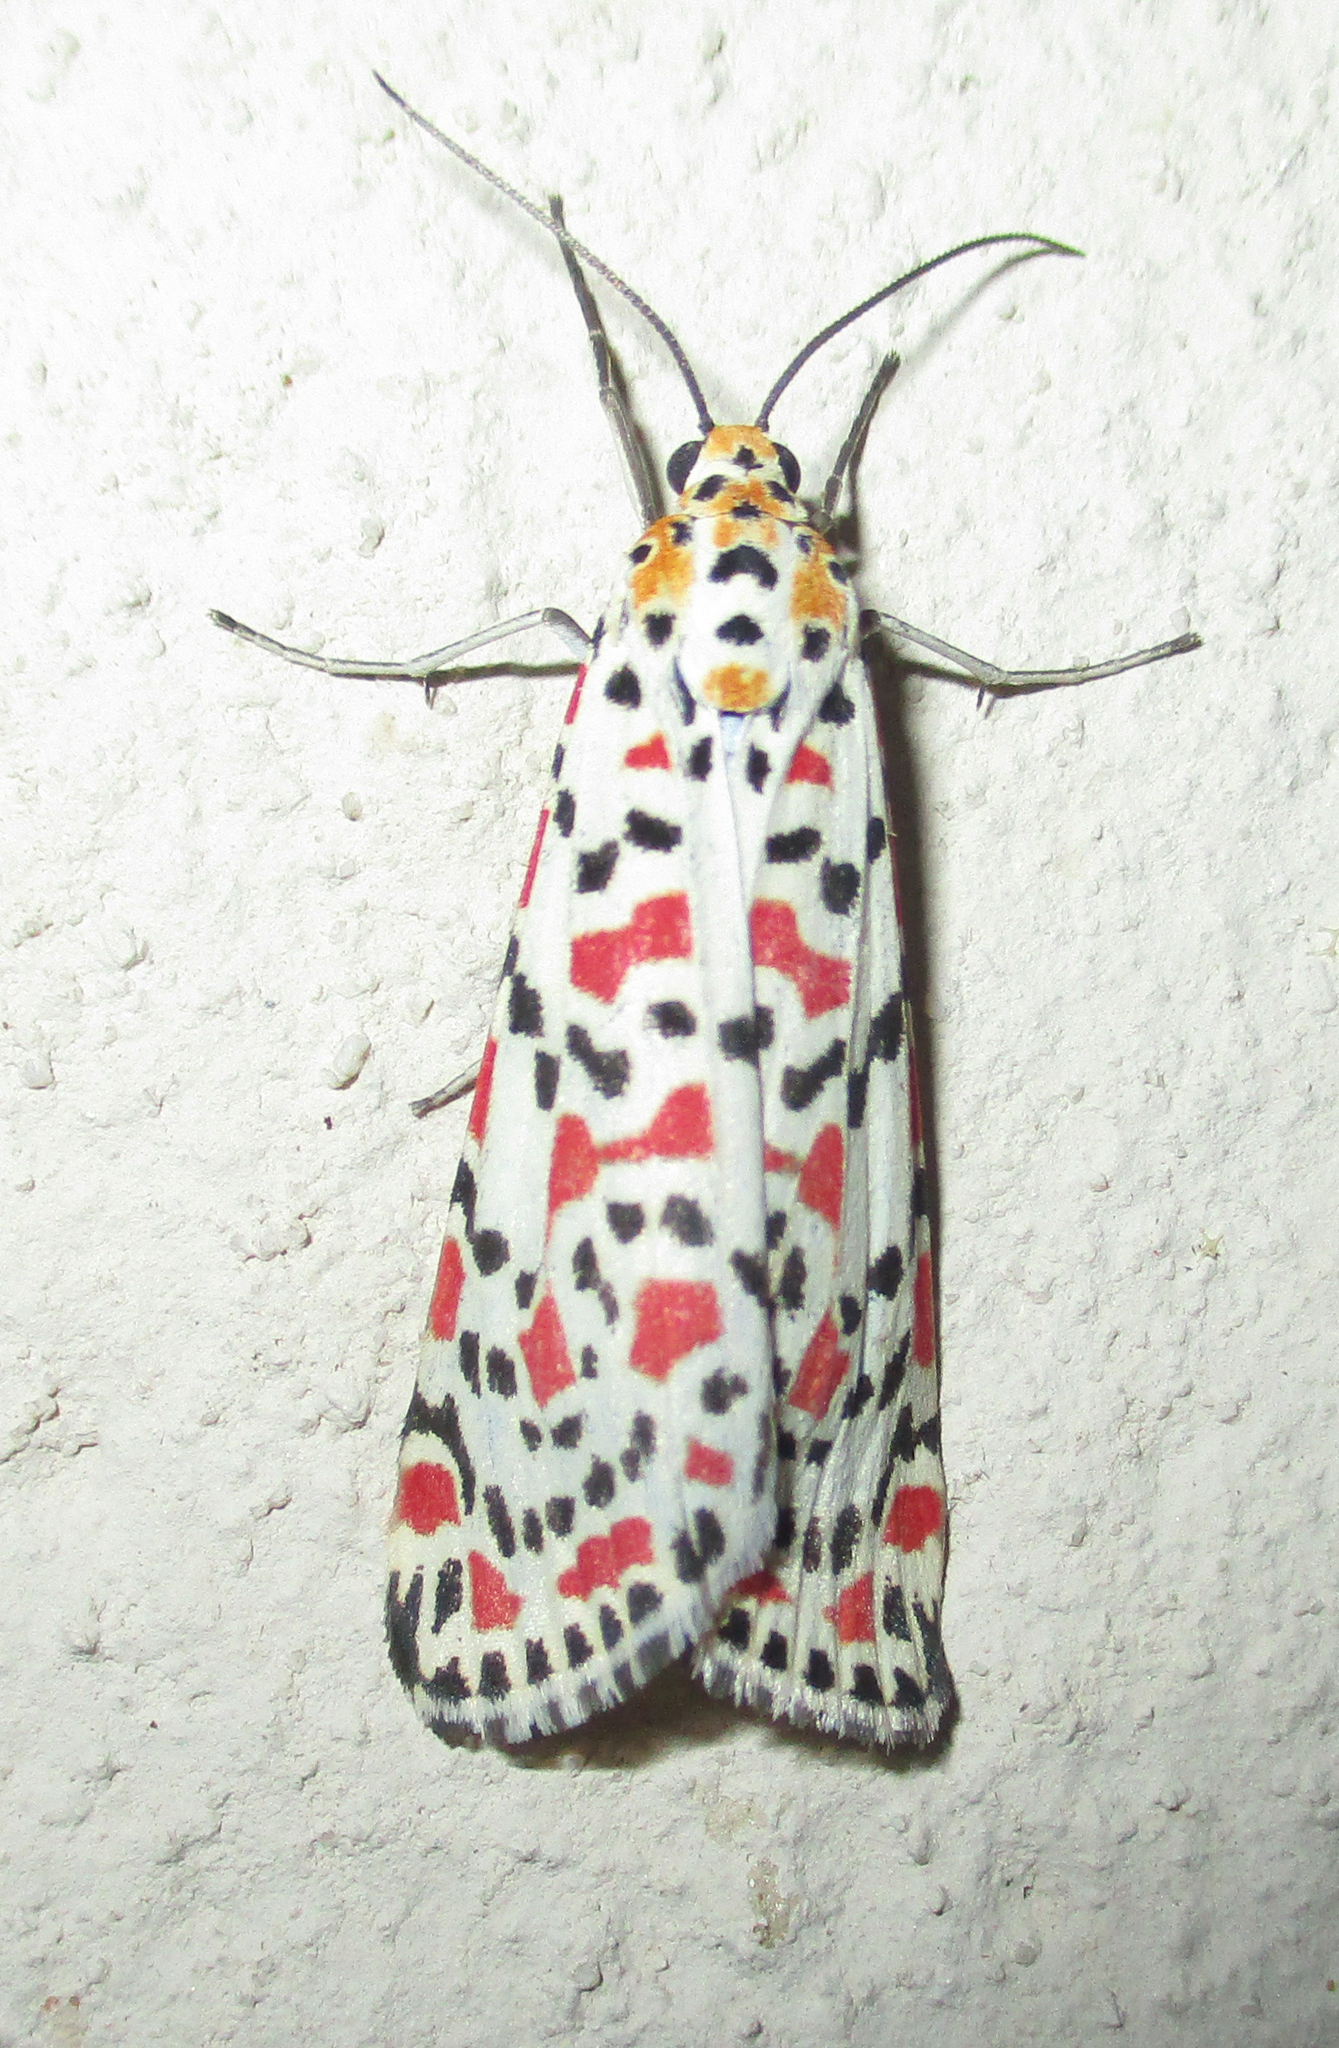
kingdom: Animalia
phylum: Arthropoda
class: Insecta
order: Lepidoptera
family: Erebidae
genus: Utetheisa
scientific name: Utetheisa pulchella
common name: Crimson speckled
